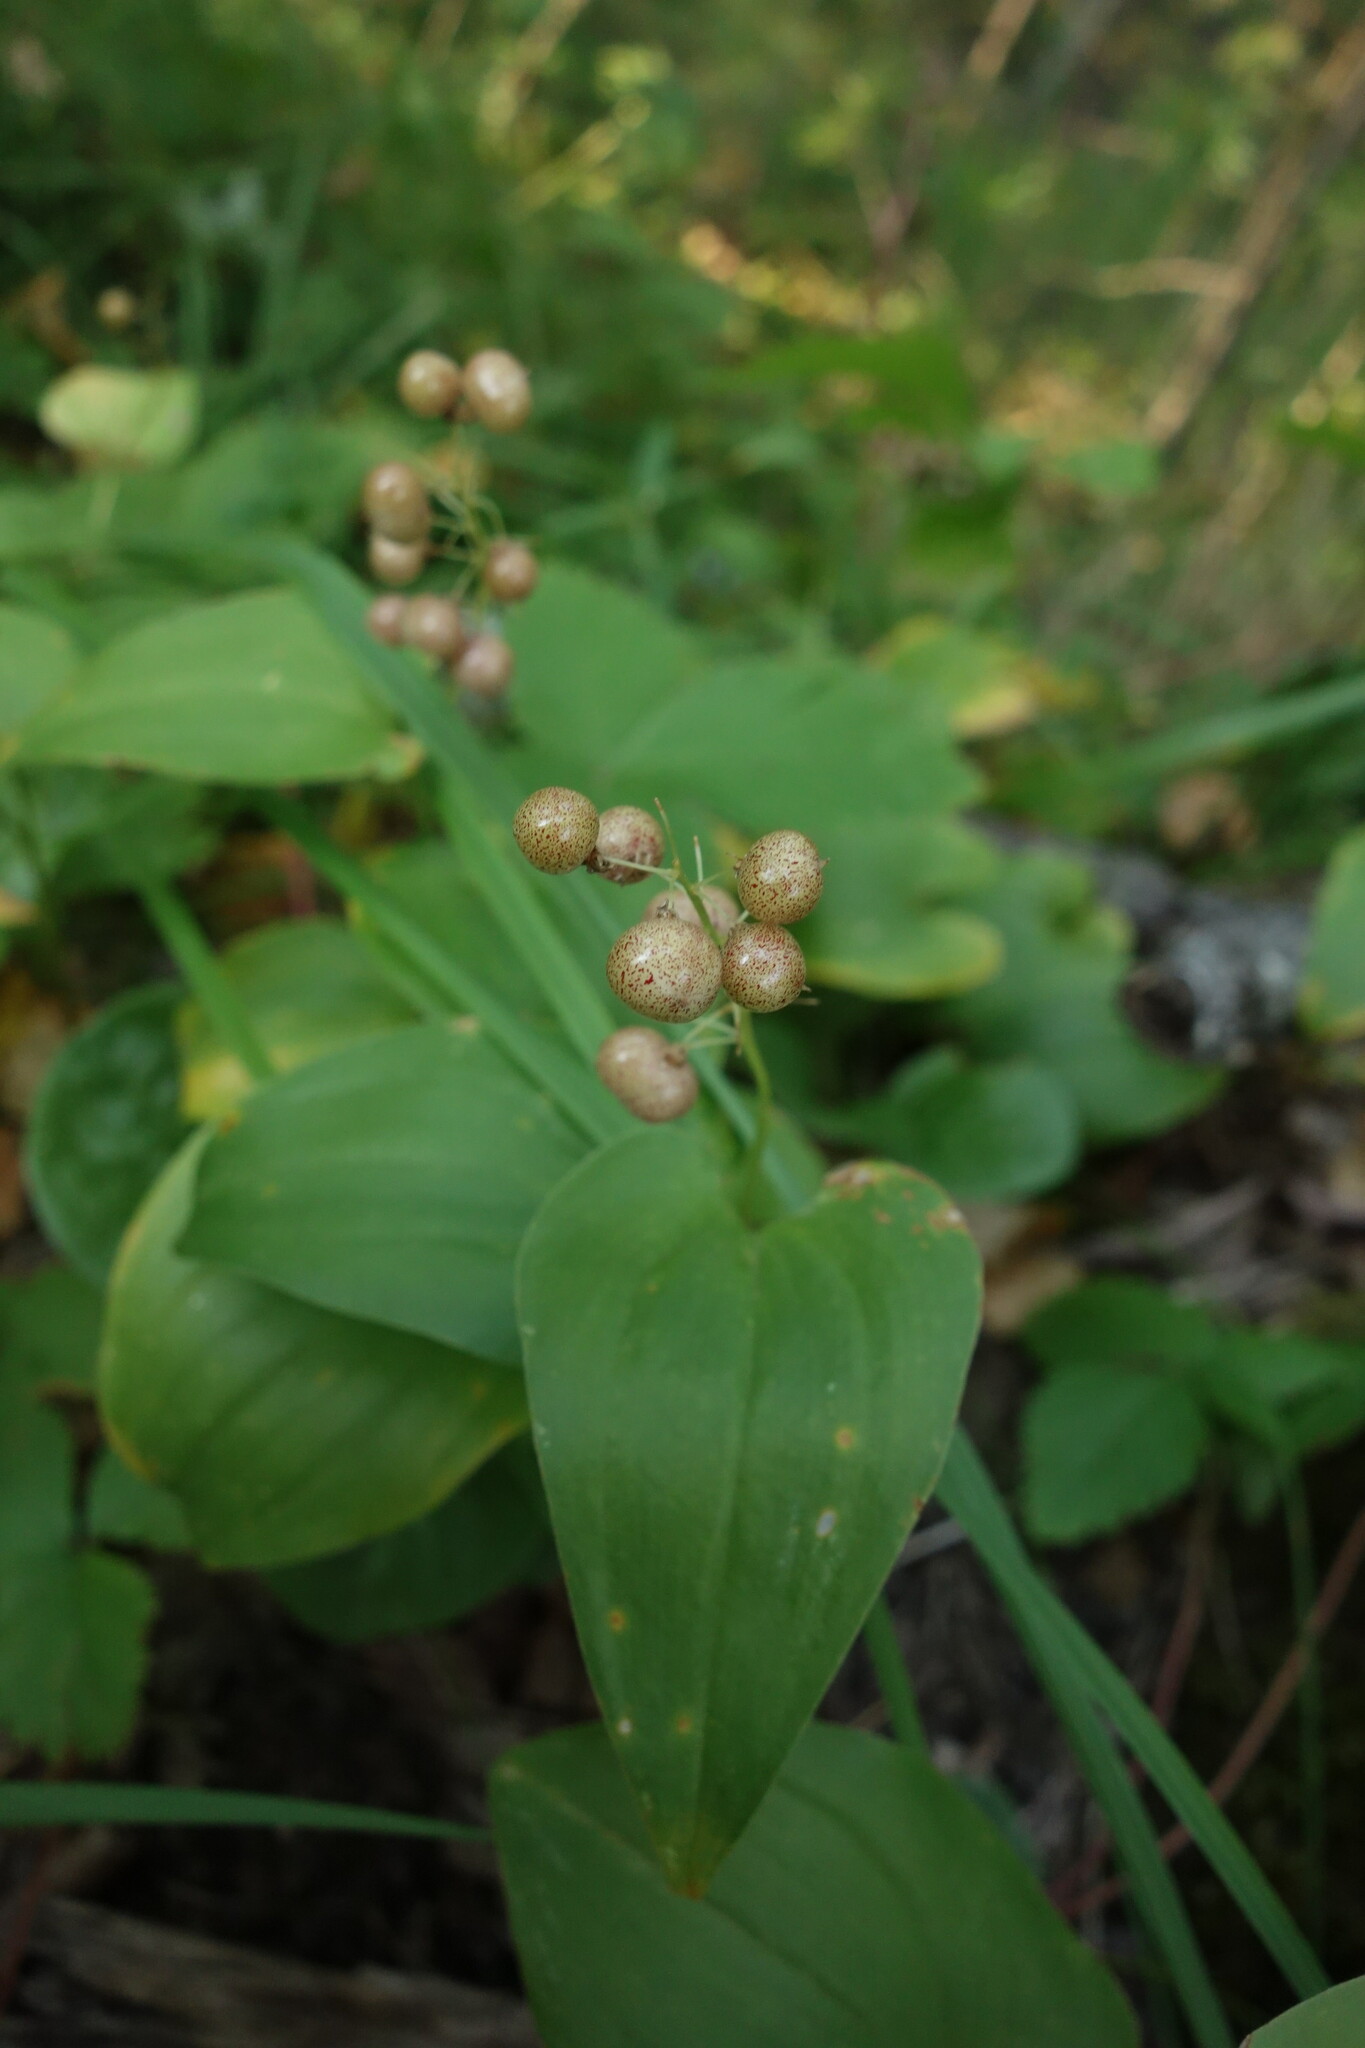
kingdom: Plantae
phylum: Tracheophyta
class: Liliopsida
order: Asparagales
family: Asparagaceae
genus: Maianthemum
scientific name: Maianthemum bifolium
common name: May lily
